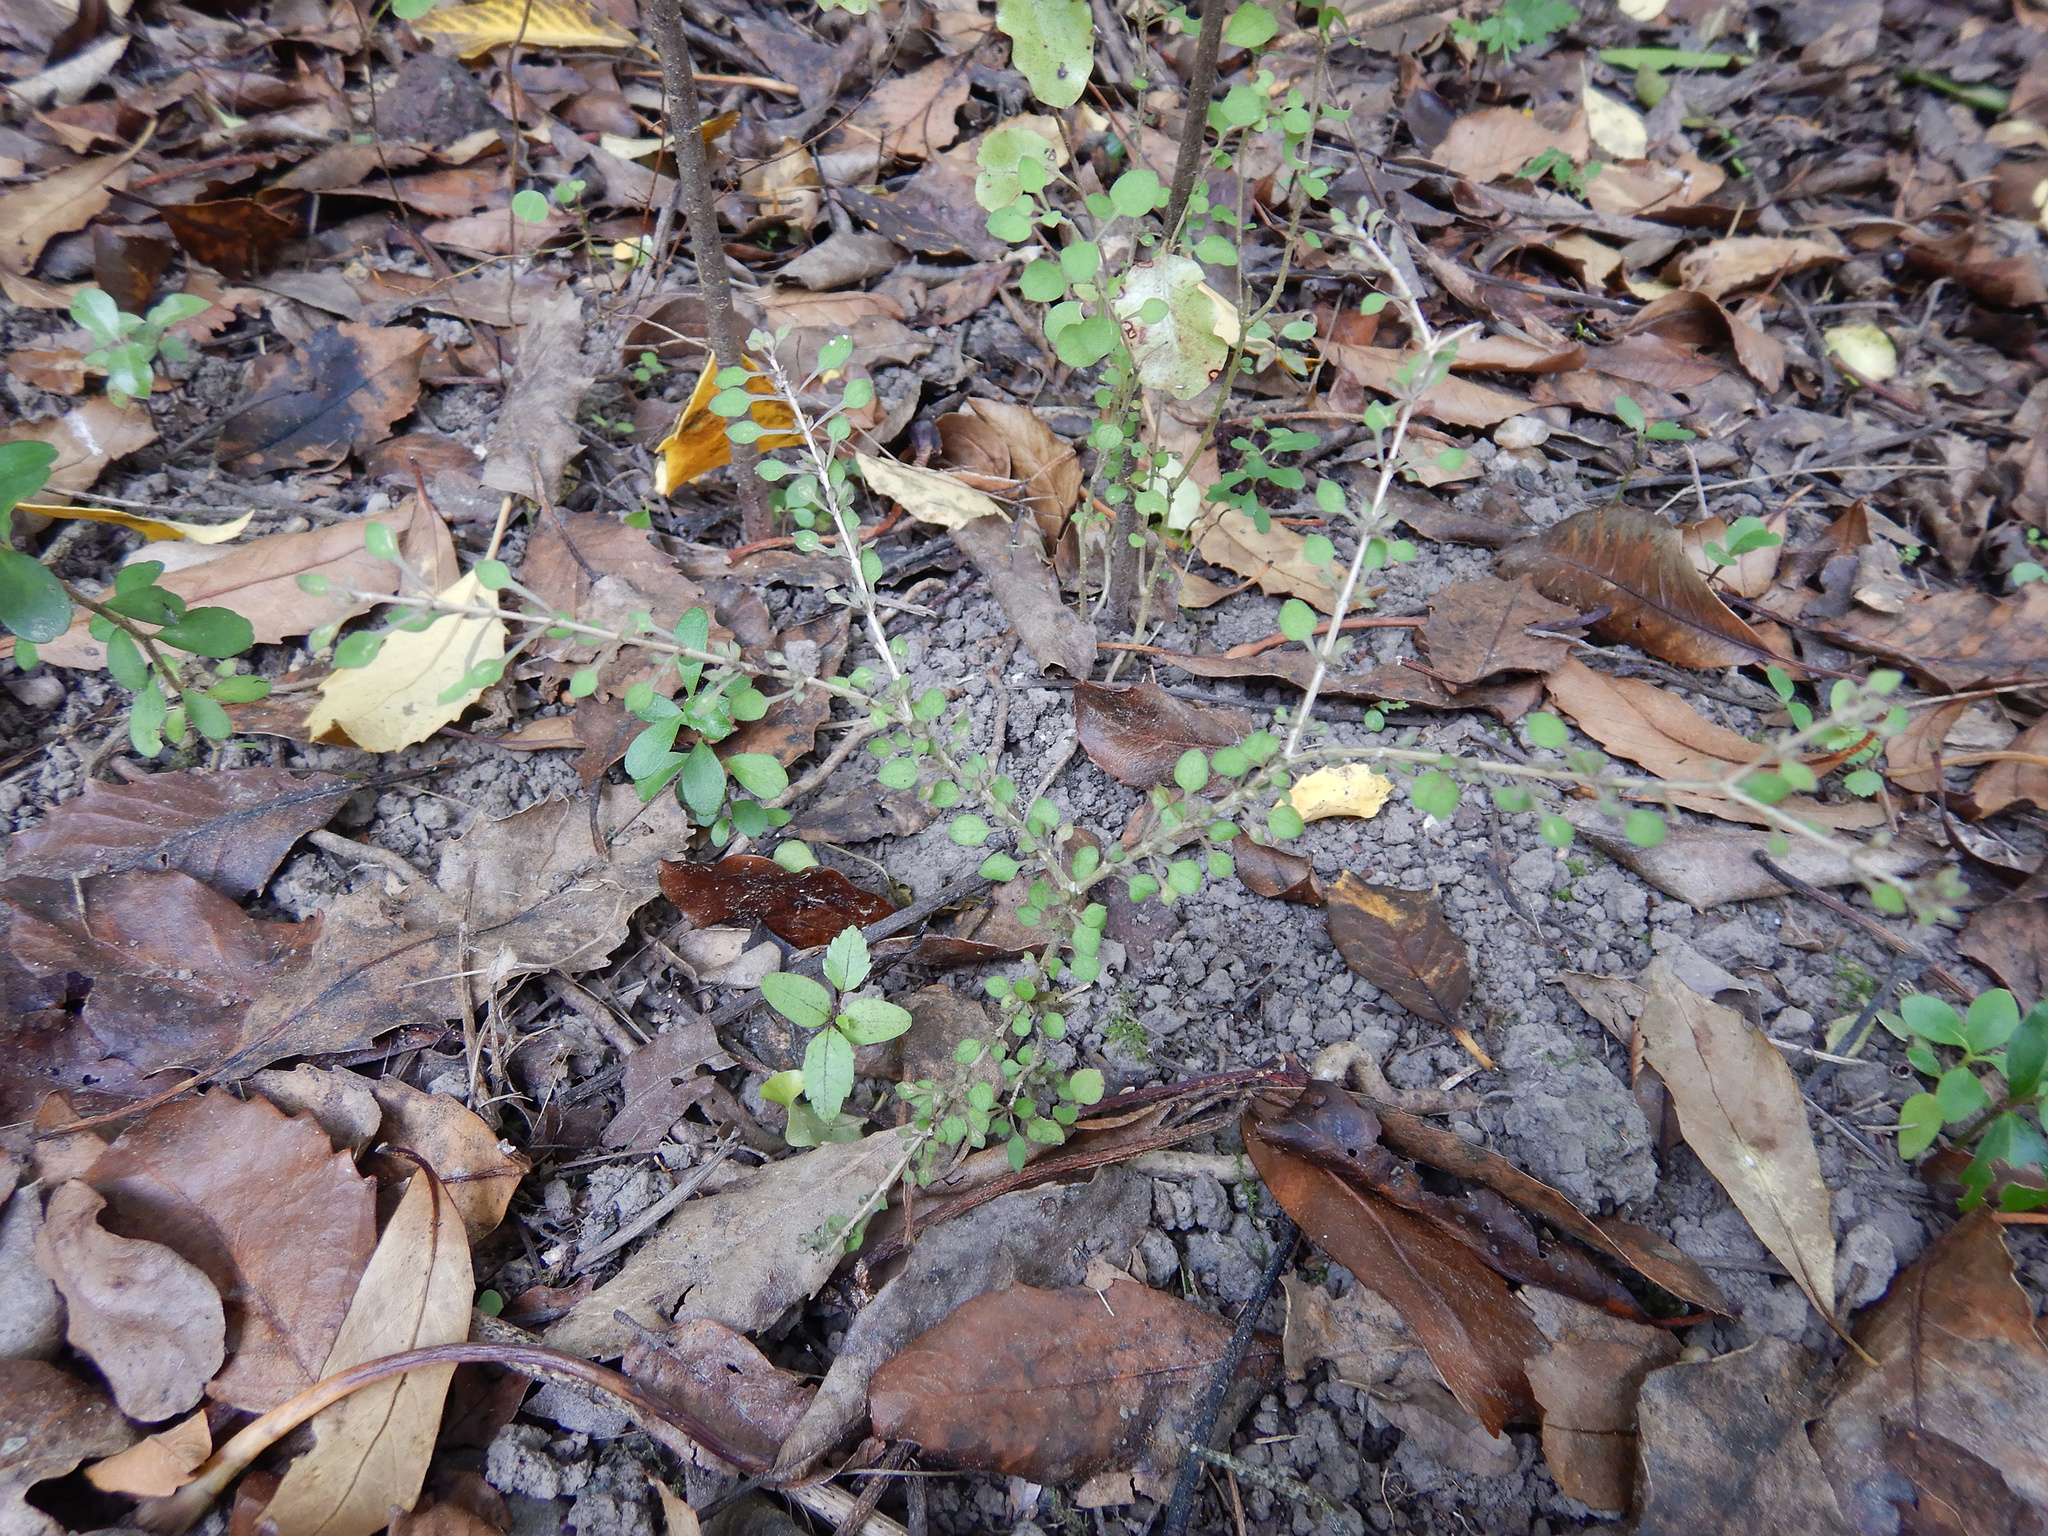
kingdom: Plantae
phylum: Tracheophyta
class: Magnoliopsida
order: Gentianales
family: Rubiaceae
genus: Coprosma
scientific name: Coprosma virescens
